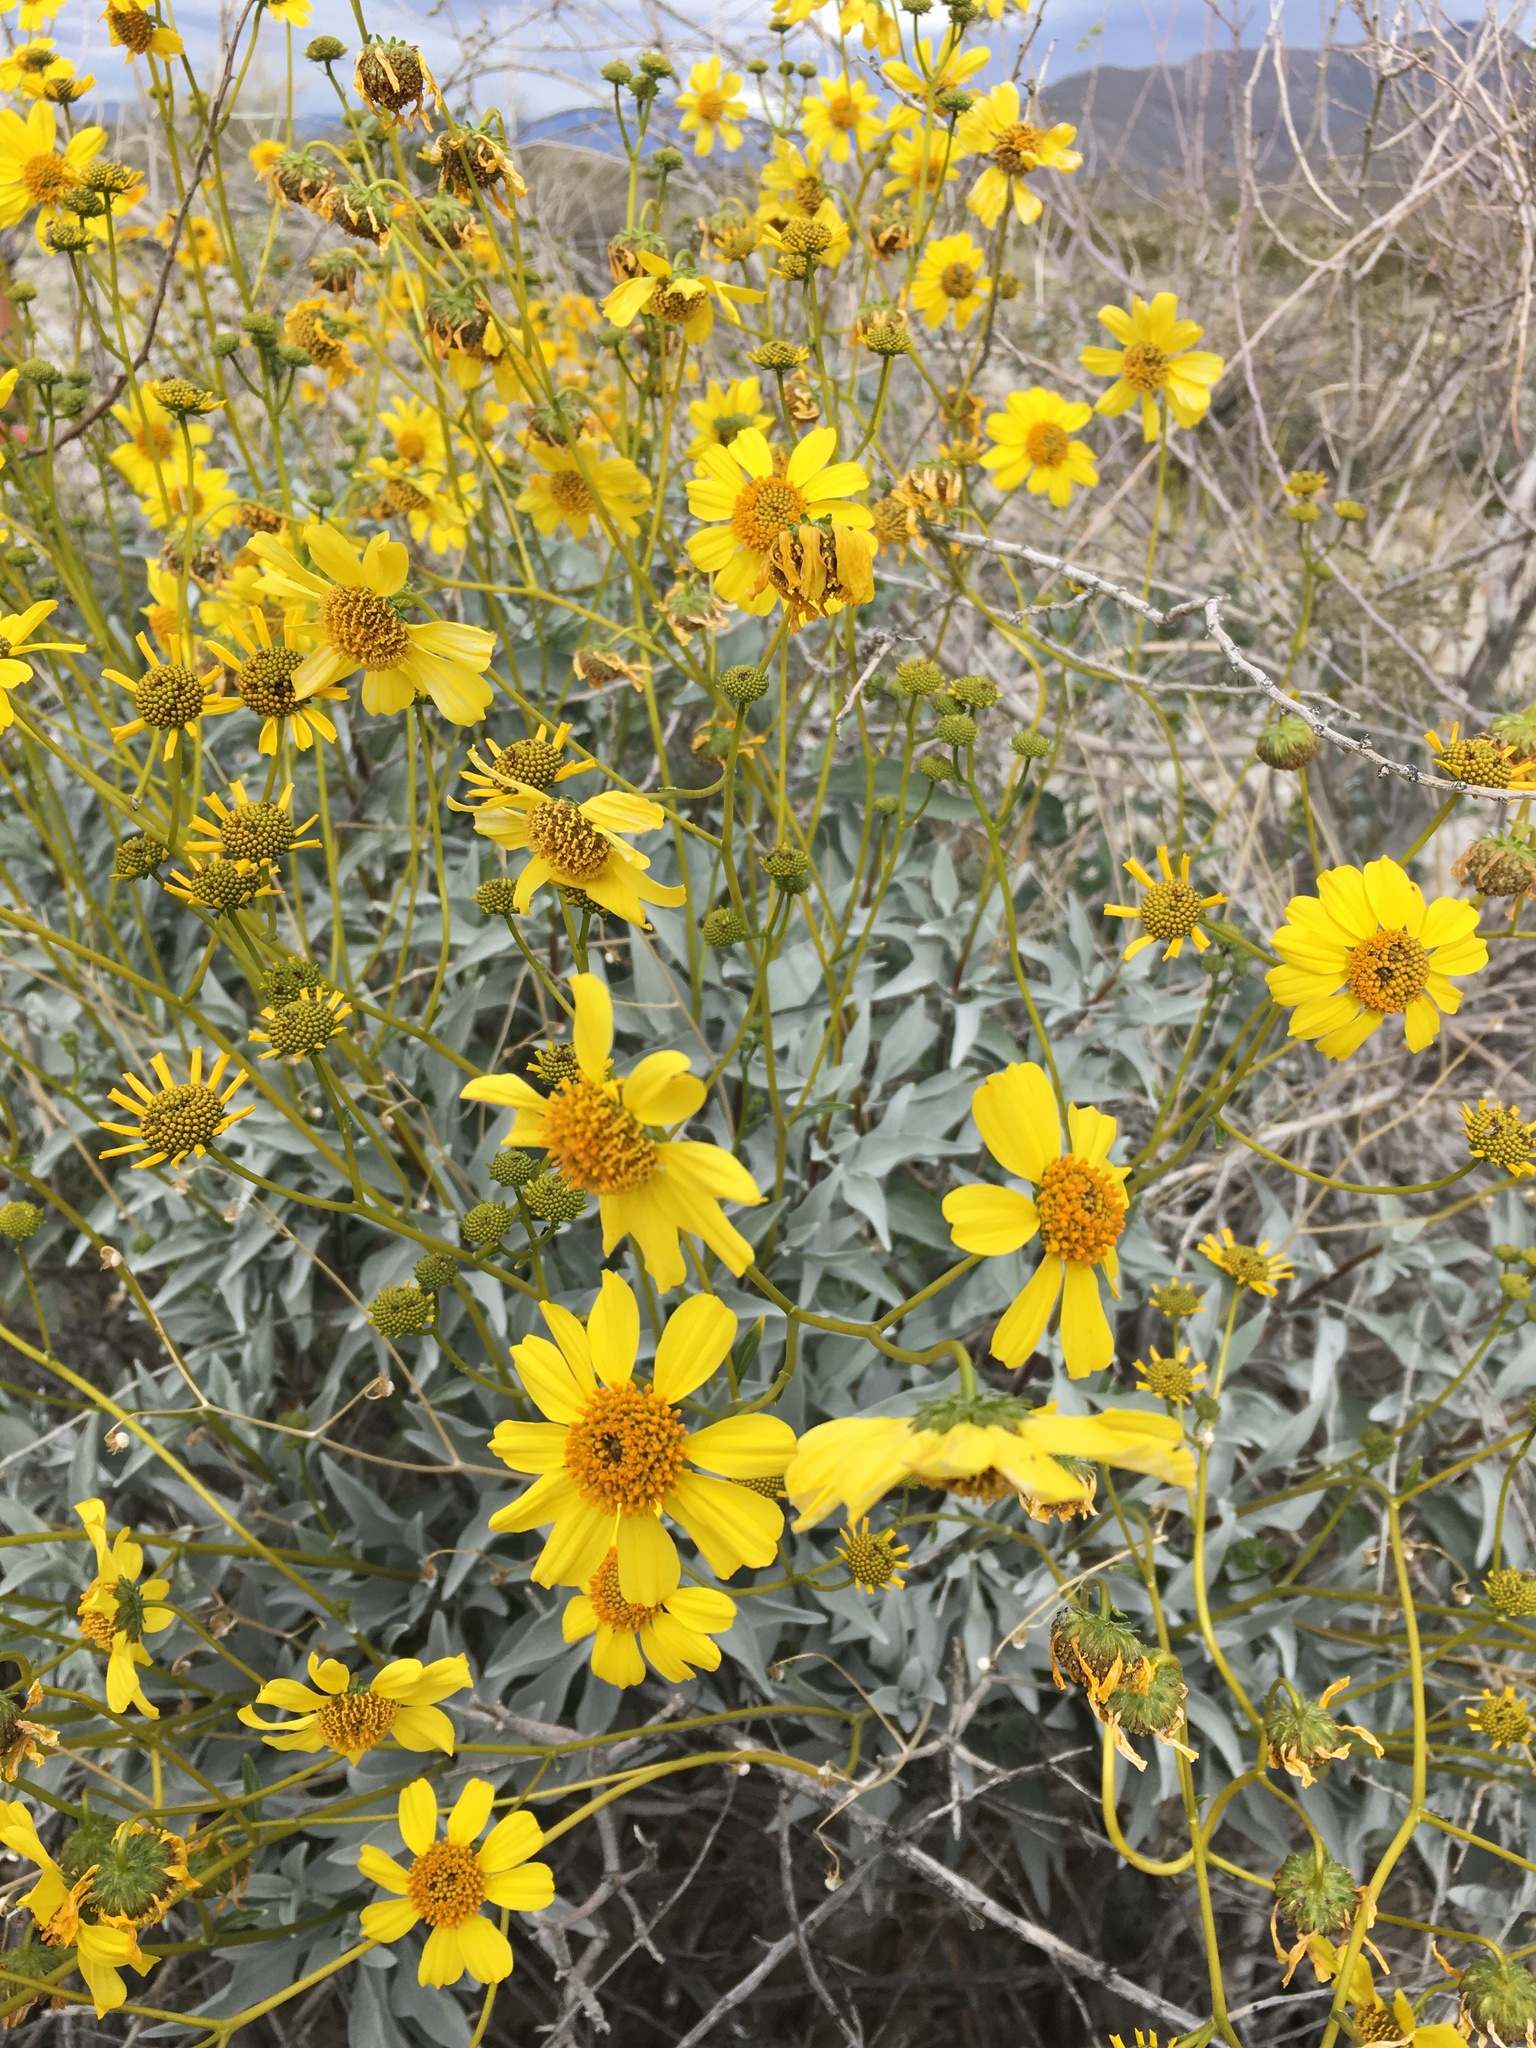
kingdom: Plantae
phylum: Tracheophyta
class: Magnoliopsida
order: Asterales
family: Asteraceae
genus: Encelia
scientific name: Encelia farinosa
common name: Brittlebush
